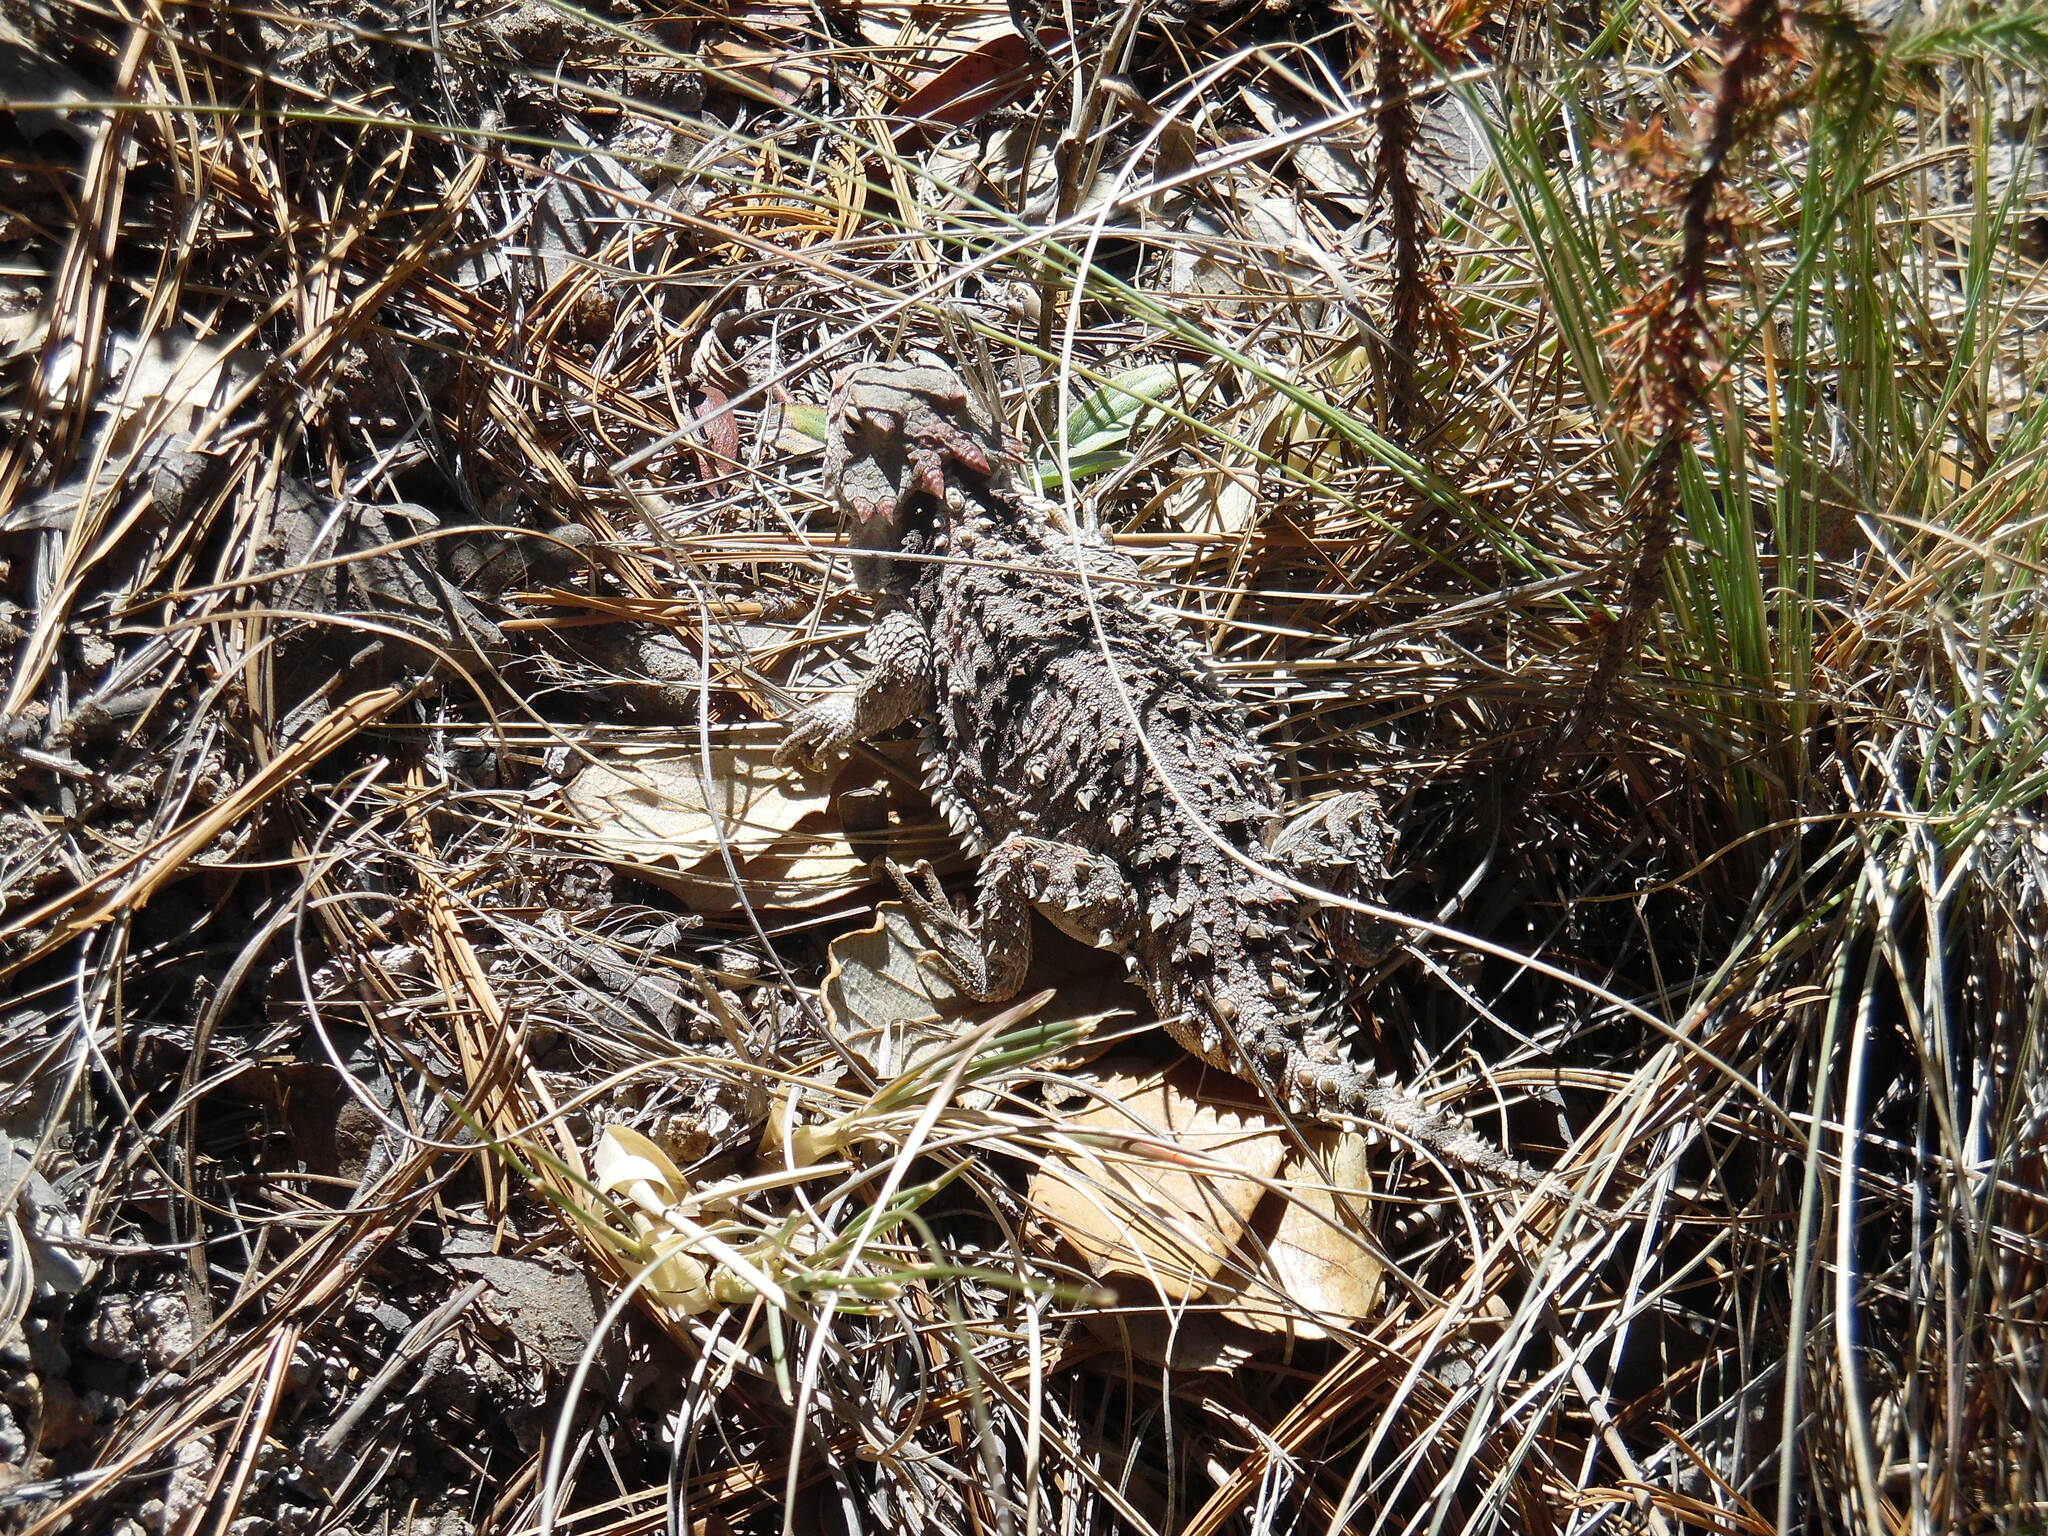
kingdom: Animalia
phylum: Chordata
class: Squamata
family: Phrynosomatidae
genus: Phrynosoma
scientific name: Phrynosoma orbiculare
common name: Mountain horned lizard
